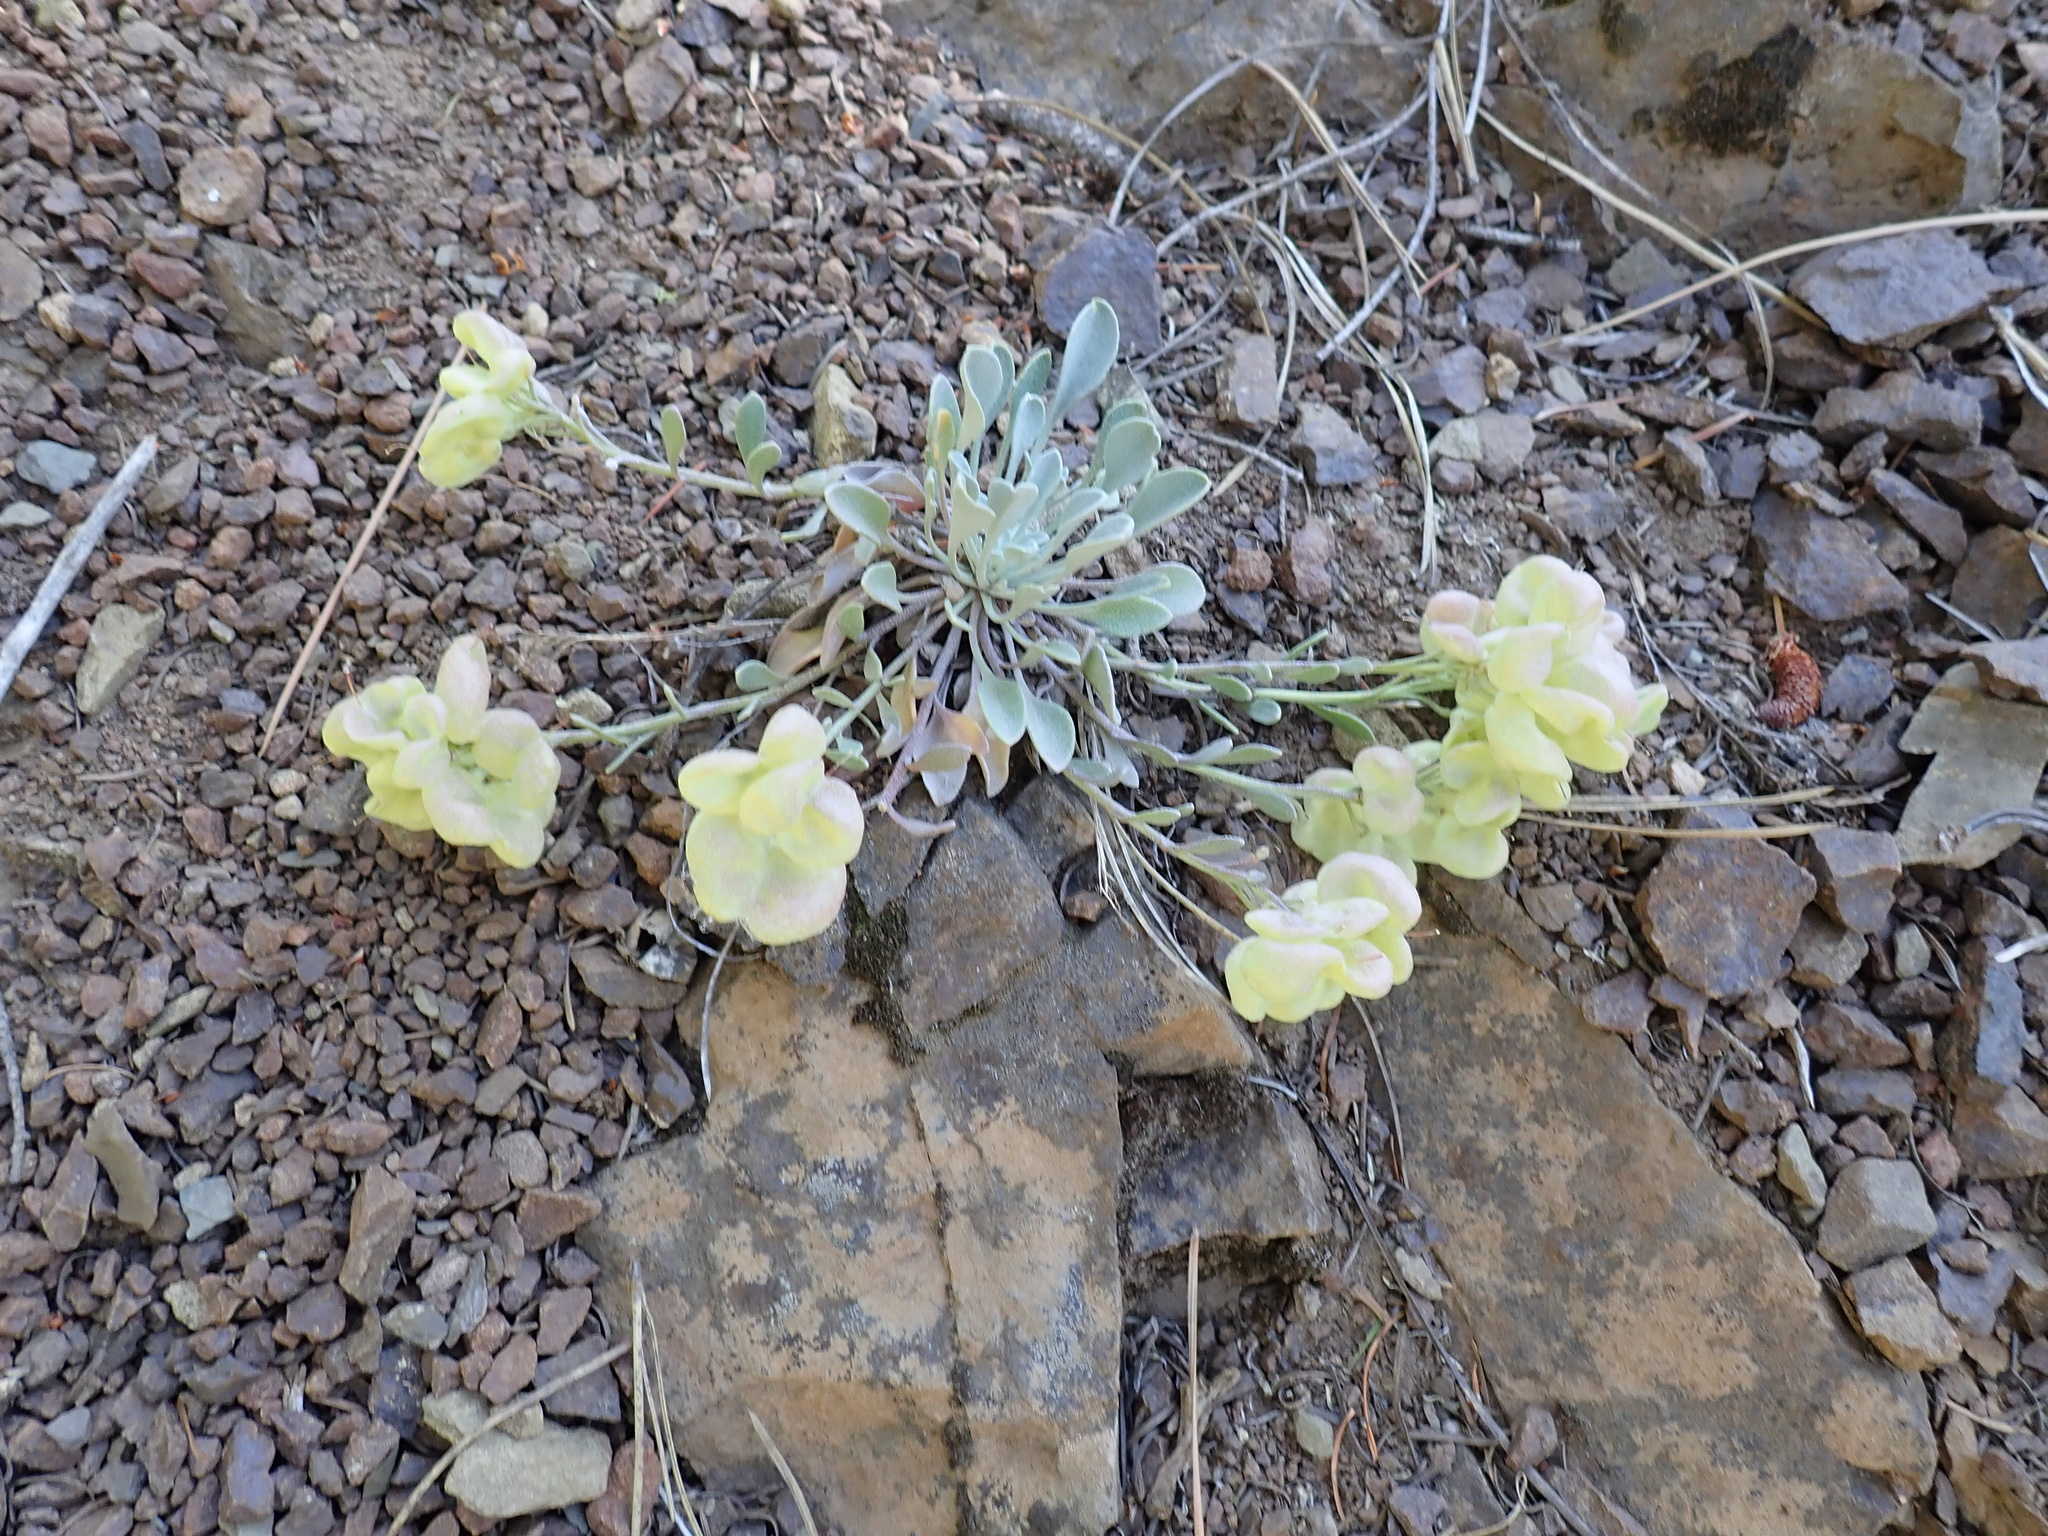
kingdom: Plantae
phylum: Tracheophyta
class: Magnoliopsida
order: Brassicales
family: Brassicaceae
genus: Physaria
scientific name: Physaria alpestris
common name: Washington twinpod
